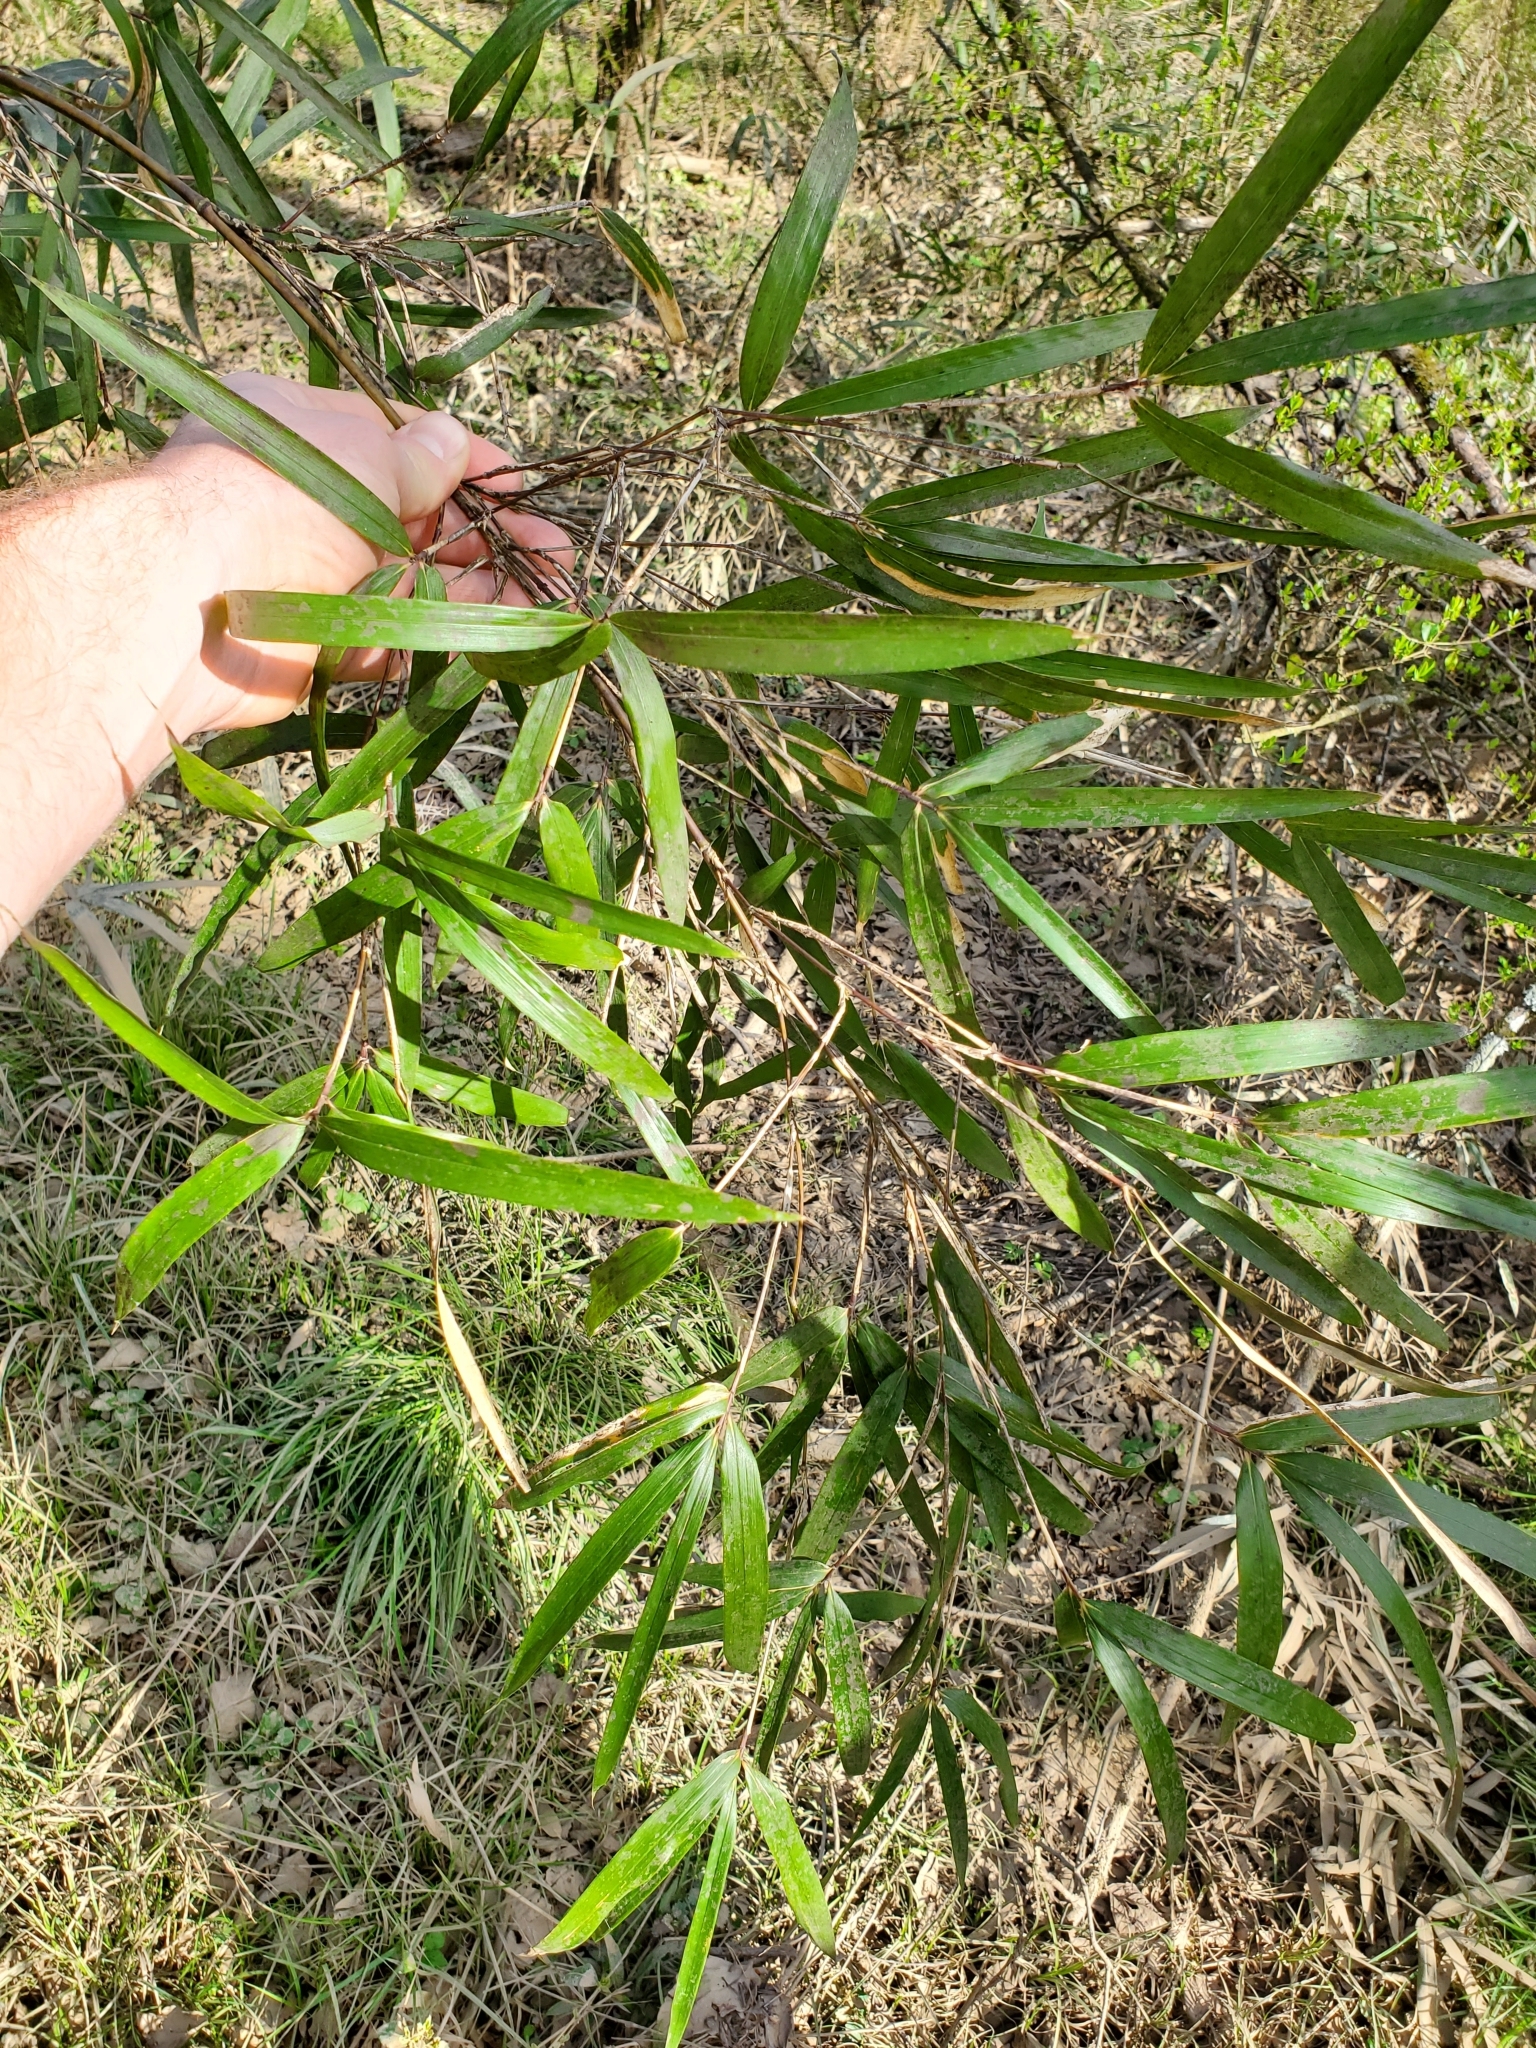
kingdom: Plantae
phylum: Tracheophyta
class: Liliopsida
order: Poales
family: Poaceae
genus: Arundinaria
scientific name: Arundinaria gigantea
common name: Giant cane
